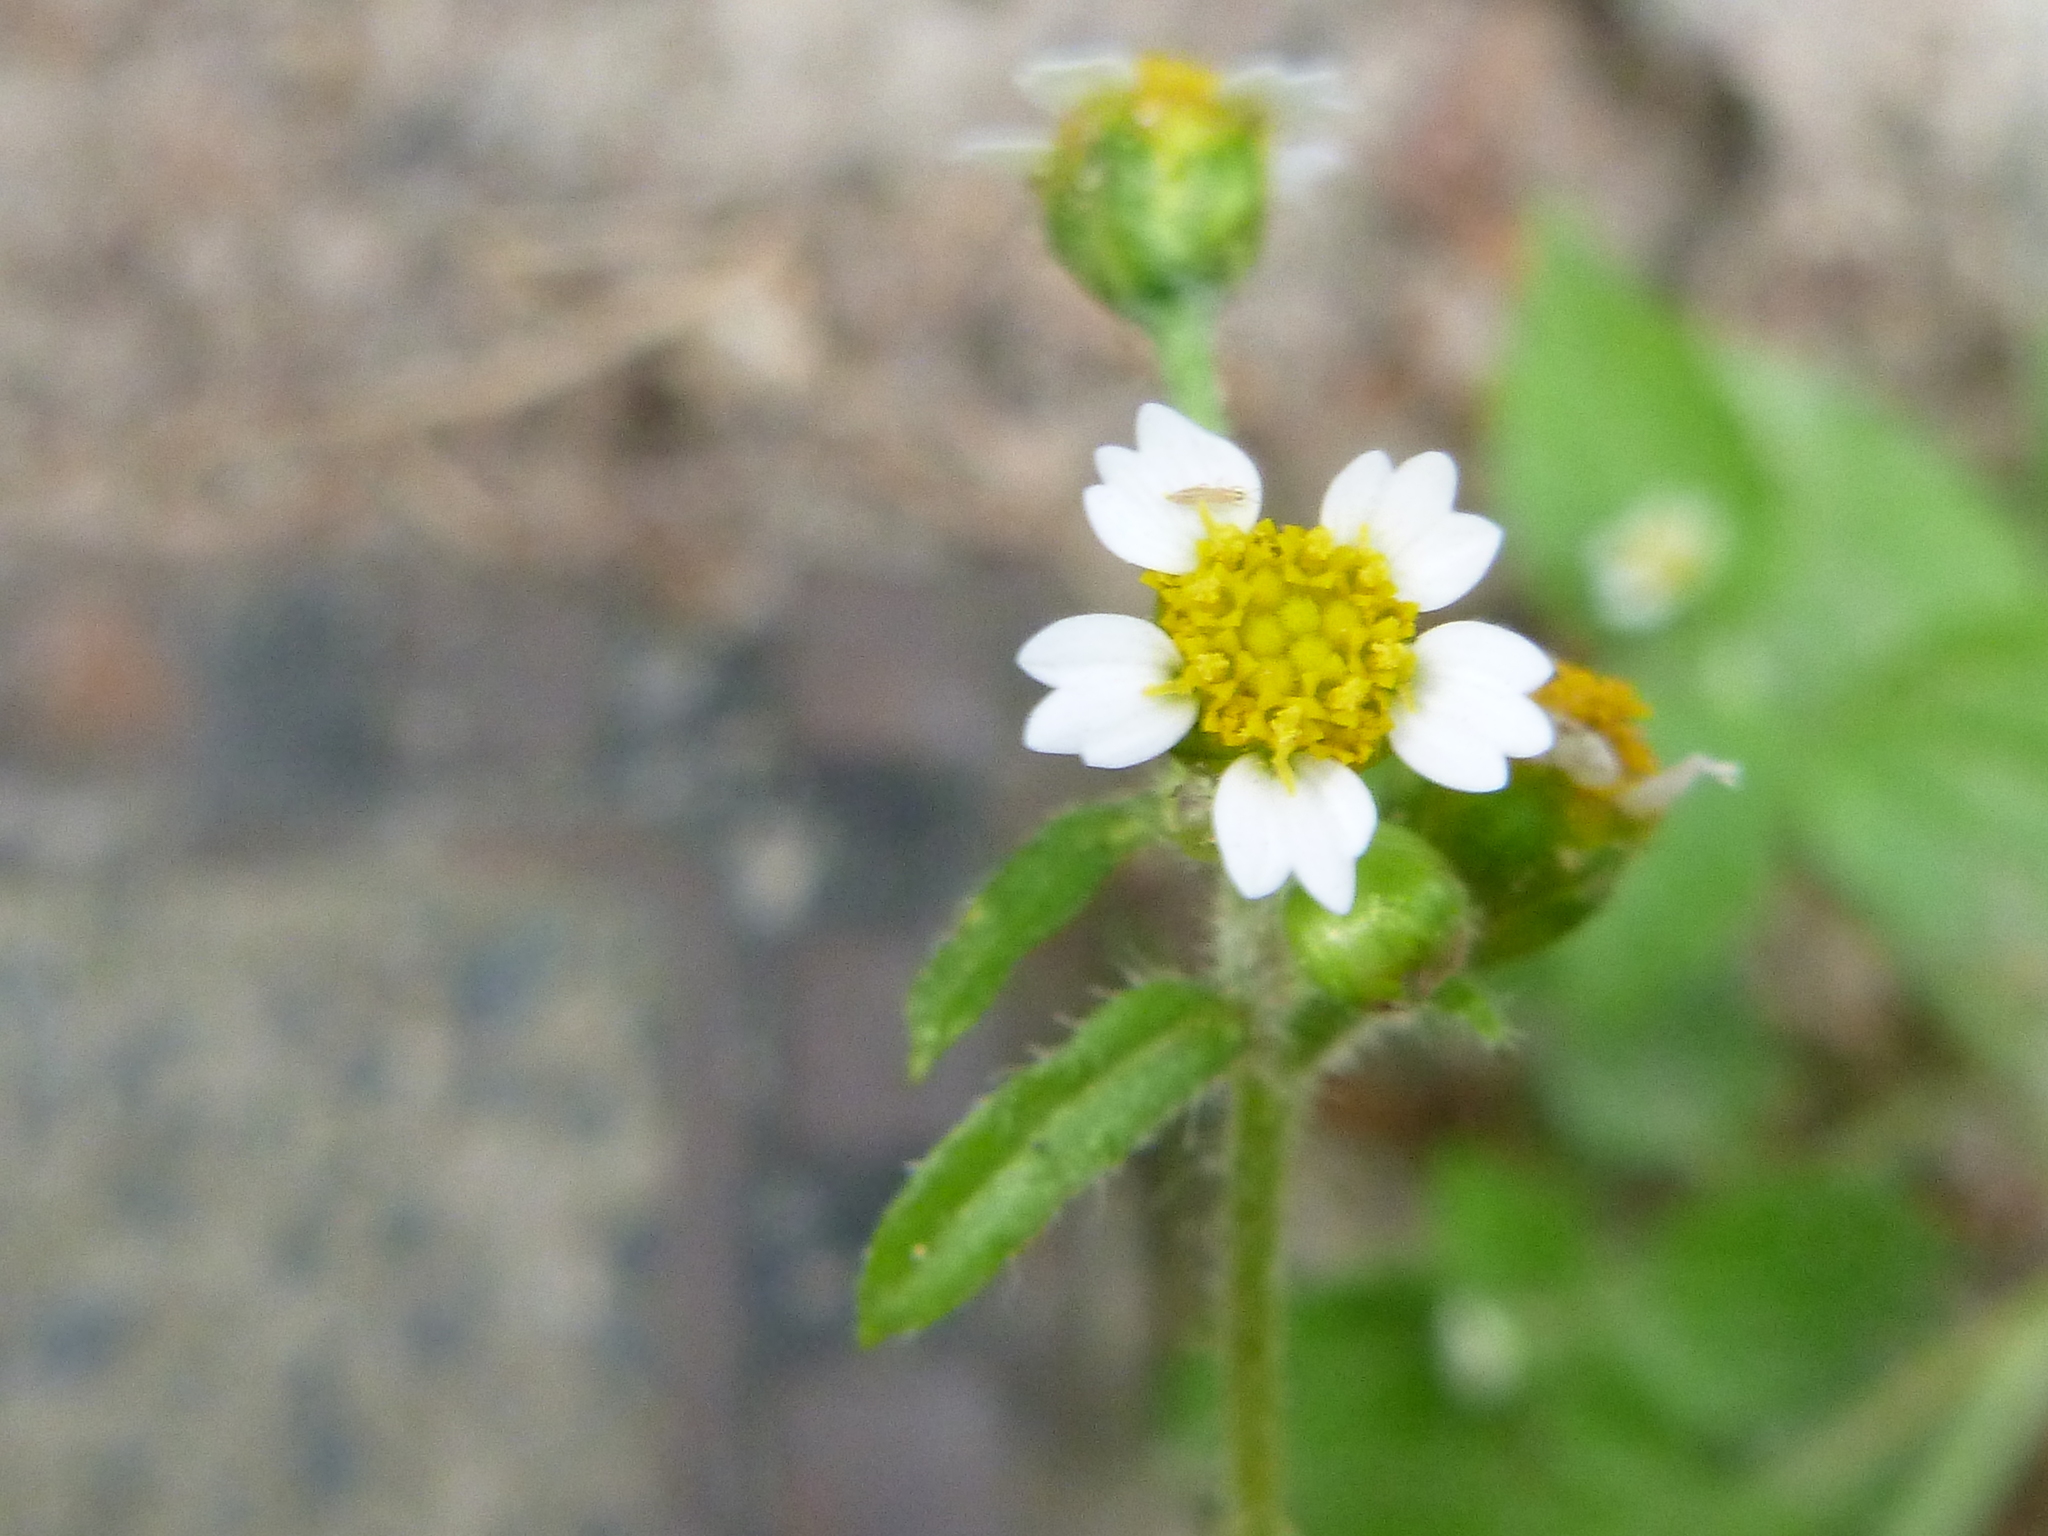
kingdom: Plantae
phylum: Tracheophyta
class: Magnoliopsida
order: Asterales
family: Asteraceae
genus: Galinsoga
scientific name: Galinsoga parviflora
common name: Gallant soldier
